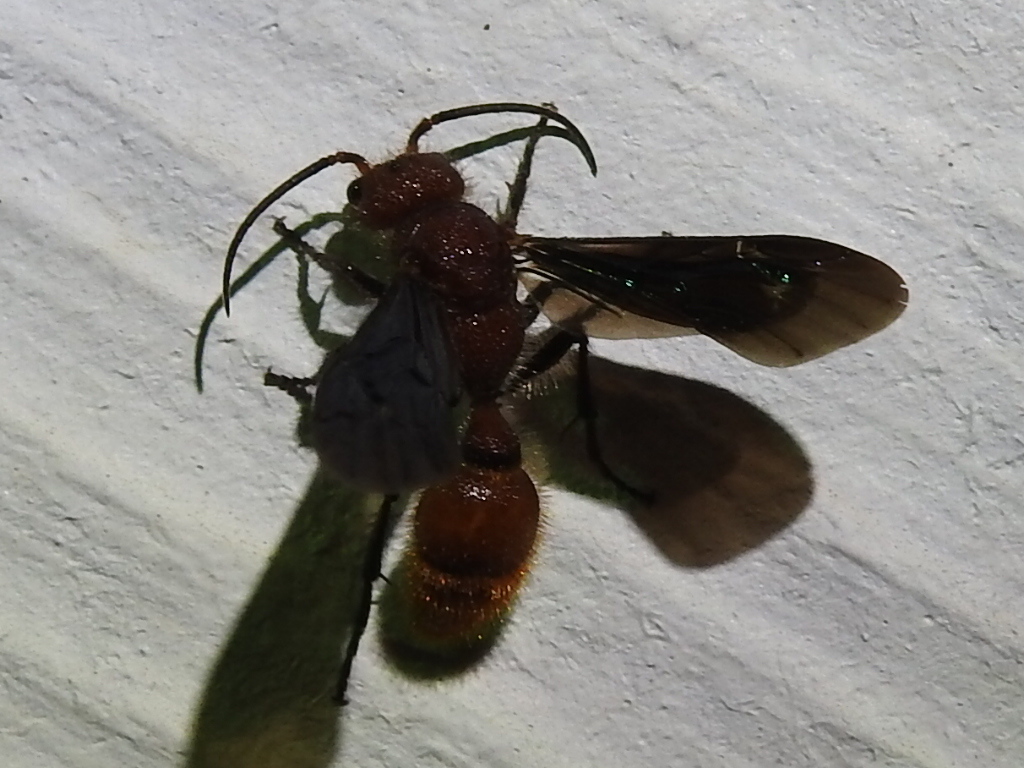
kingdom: Animalia
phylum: Arthropoda
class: Insecta
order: Hymenoptera
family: Mutillidae
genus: Sphaeropthalma
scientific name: Sphaeropthalma
